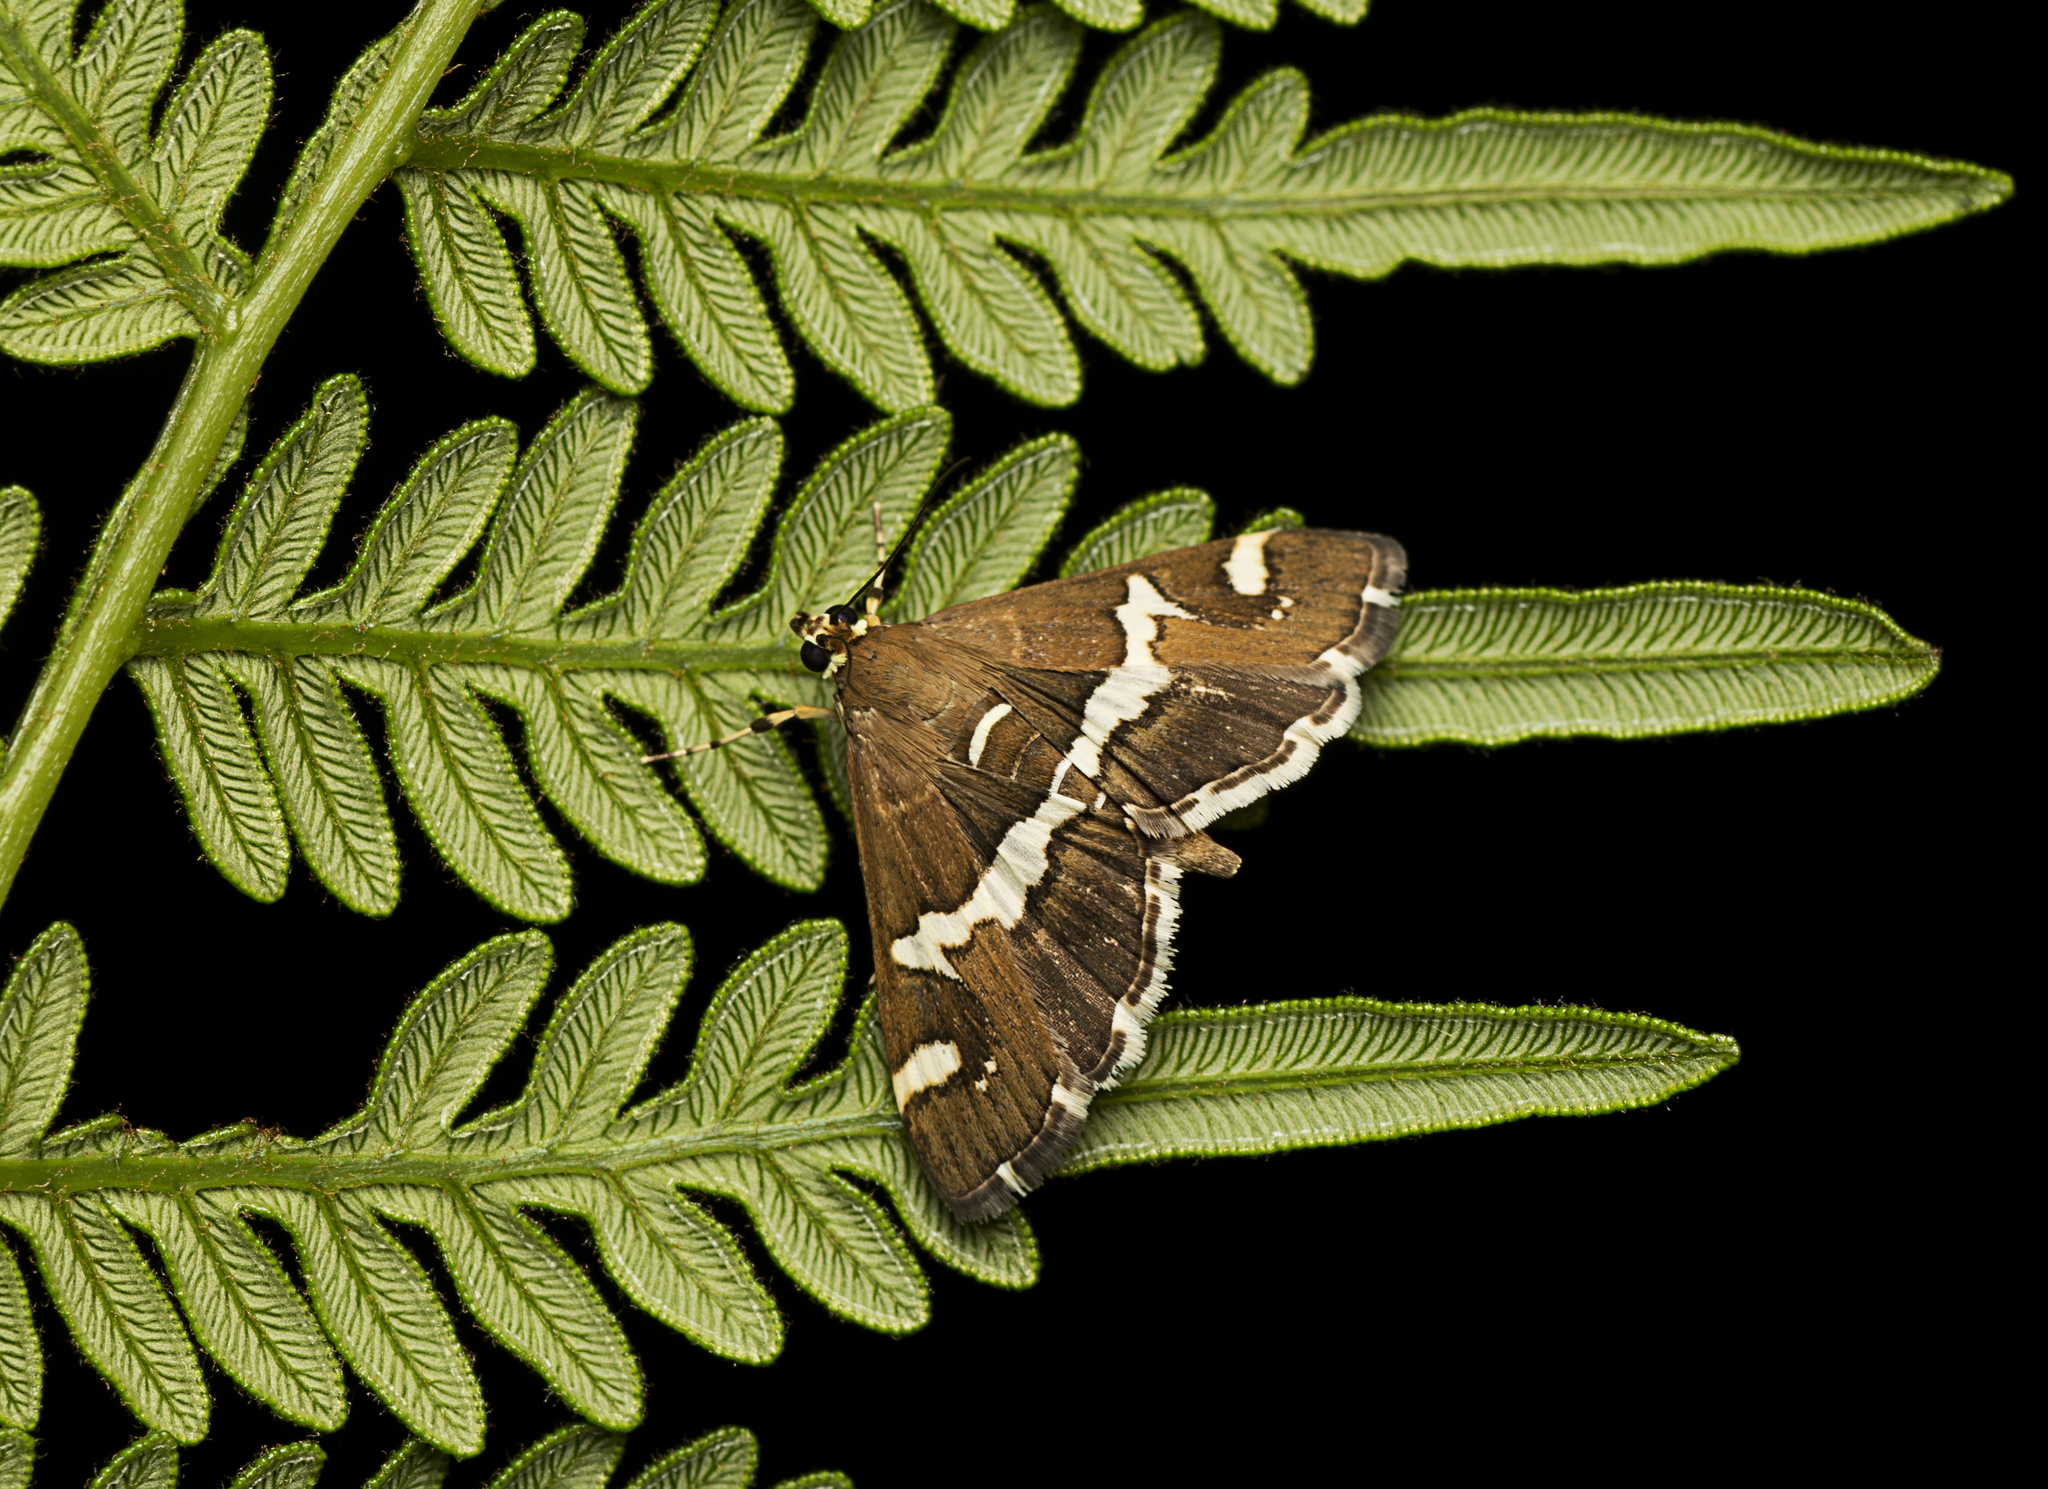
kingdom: Animalia
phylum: Arthropoda
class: Insecta
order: Lepidoptera
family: Crambidae
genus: Spoladea
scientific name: Spoladea recurvalis
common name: Beet webworm moth
